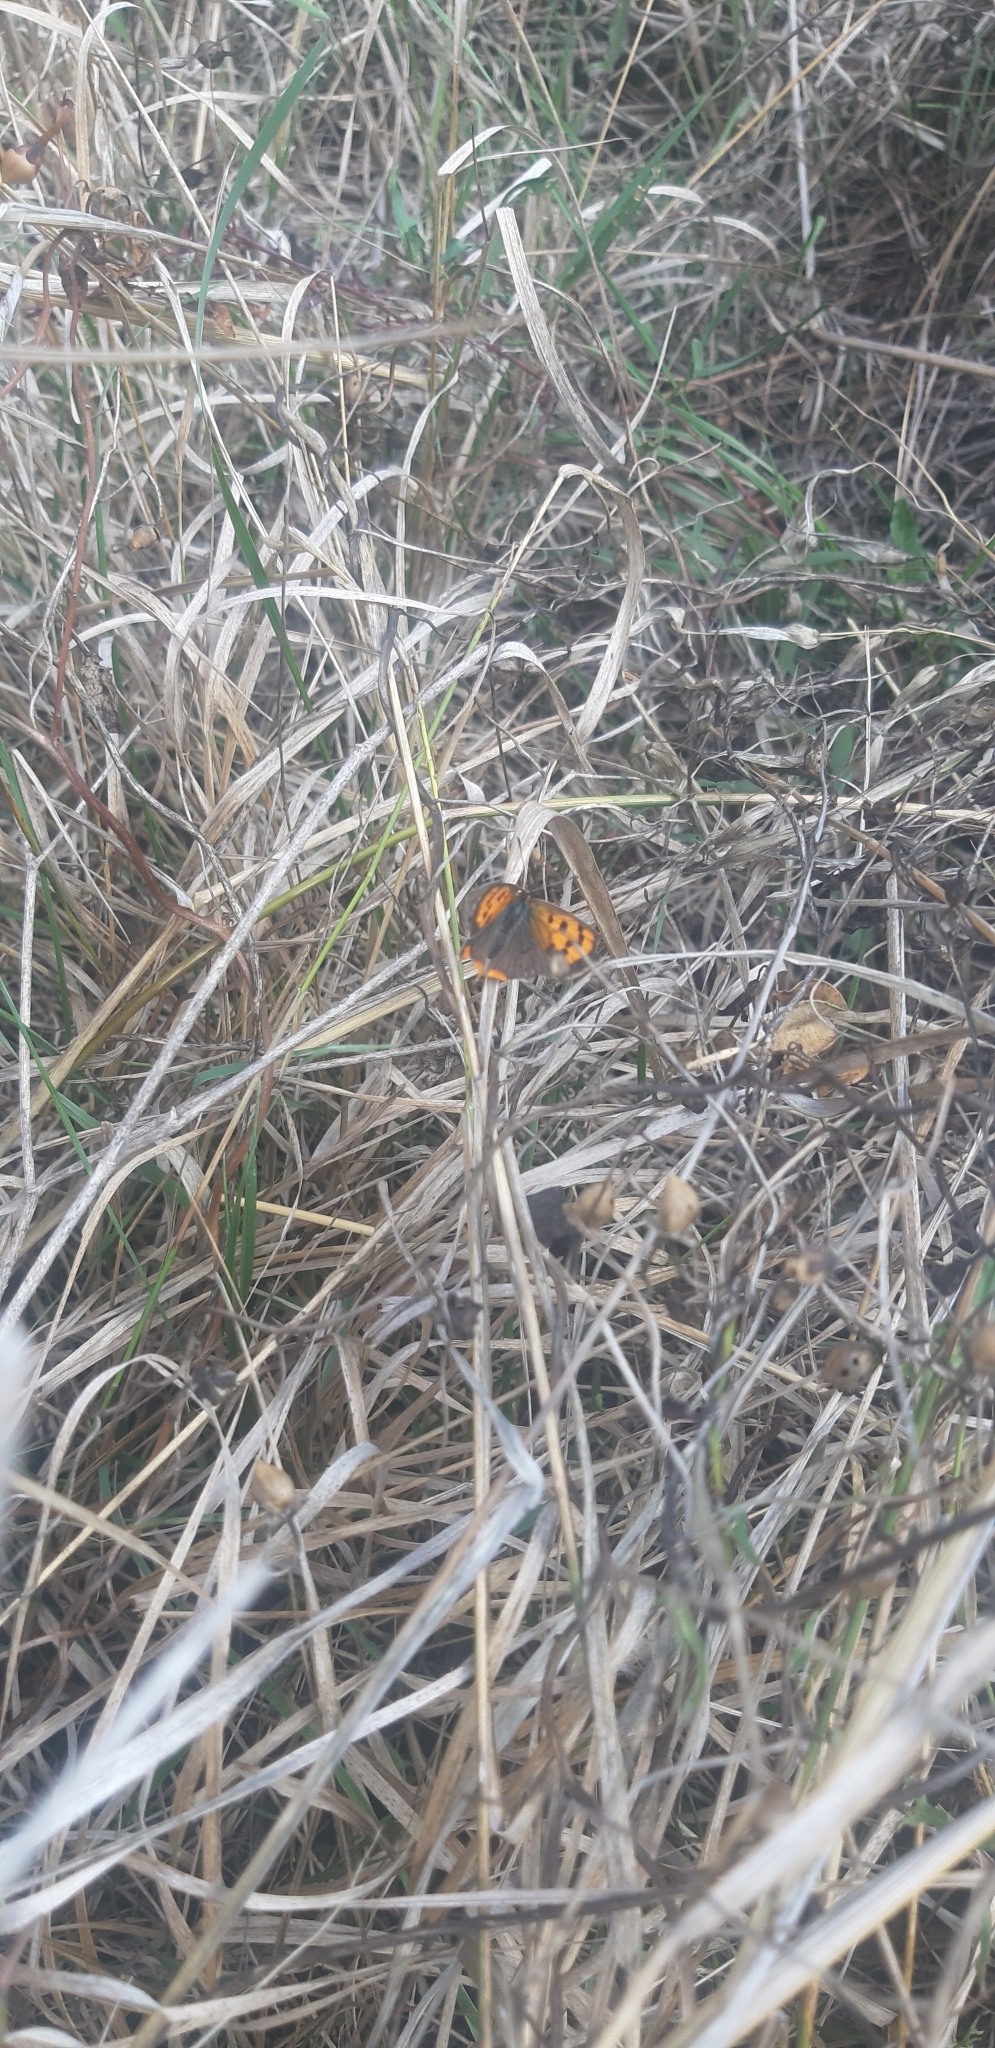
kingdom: Animalia
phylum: Arthropoda
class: Insecta
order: Lepidoptera
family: Lycaenidae
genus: Lycaena
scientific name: Lycaena phlaeas
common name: Small copper
